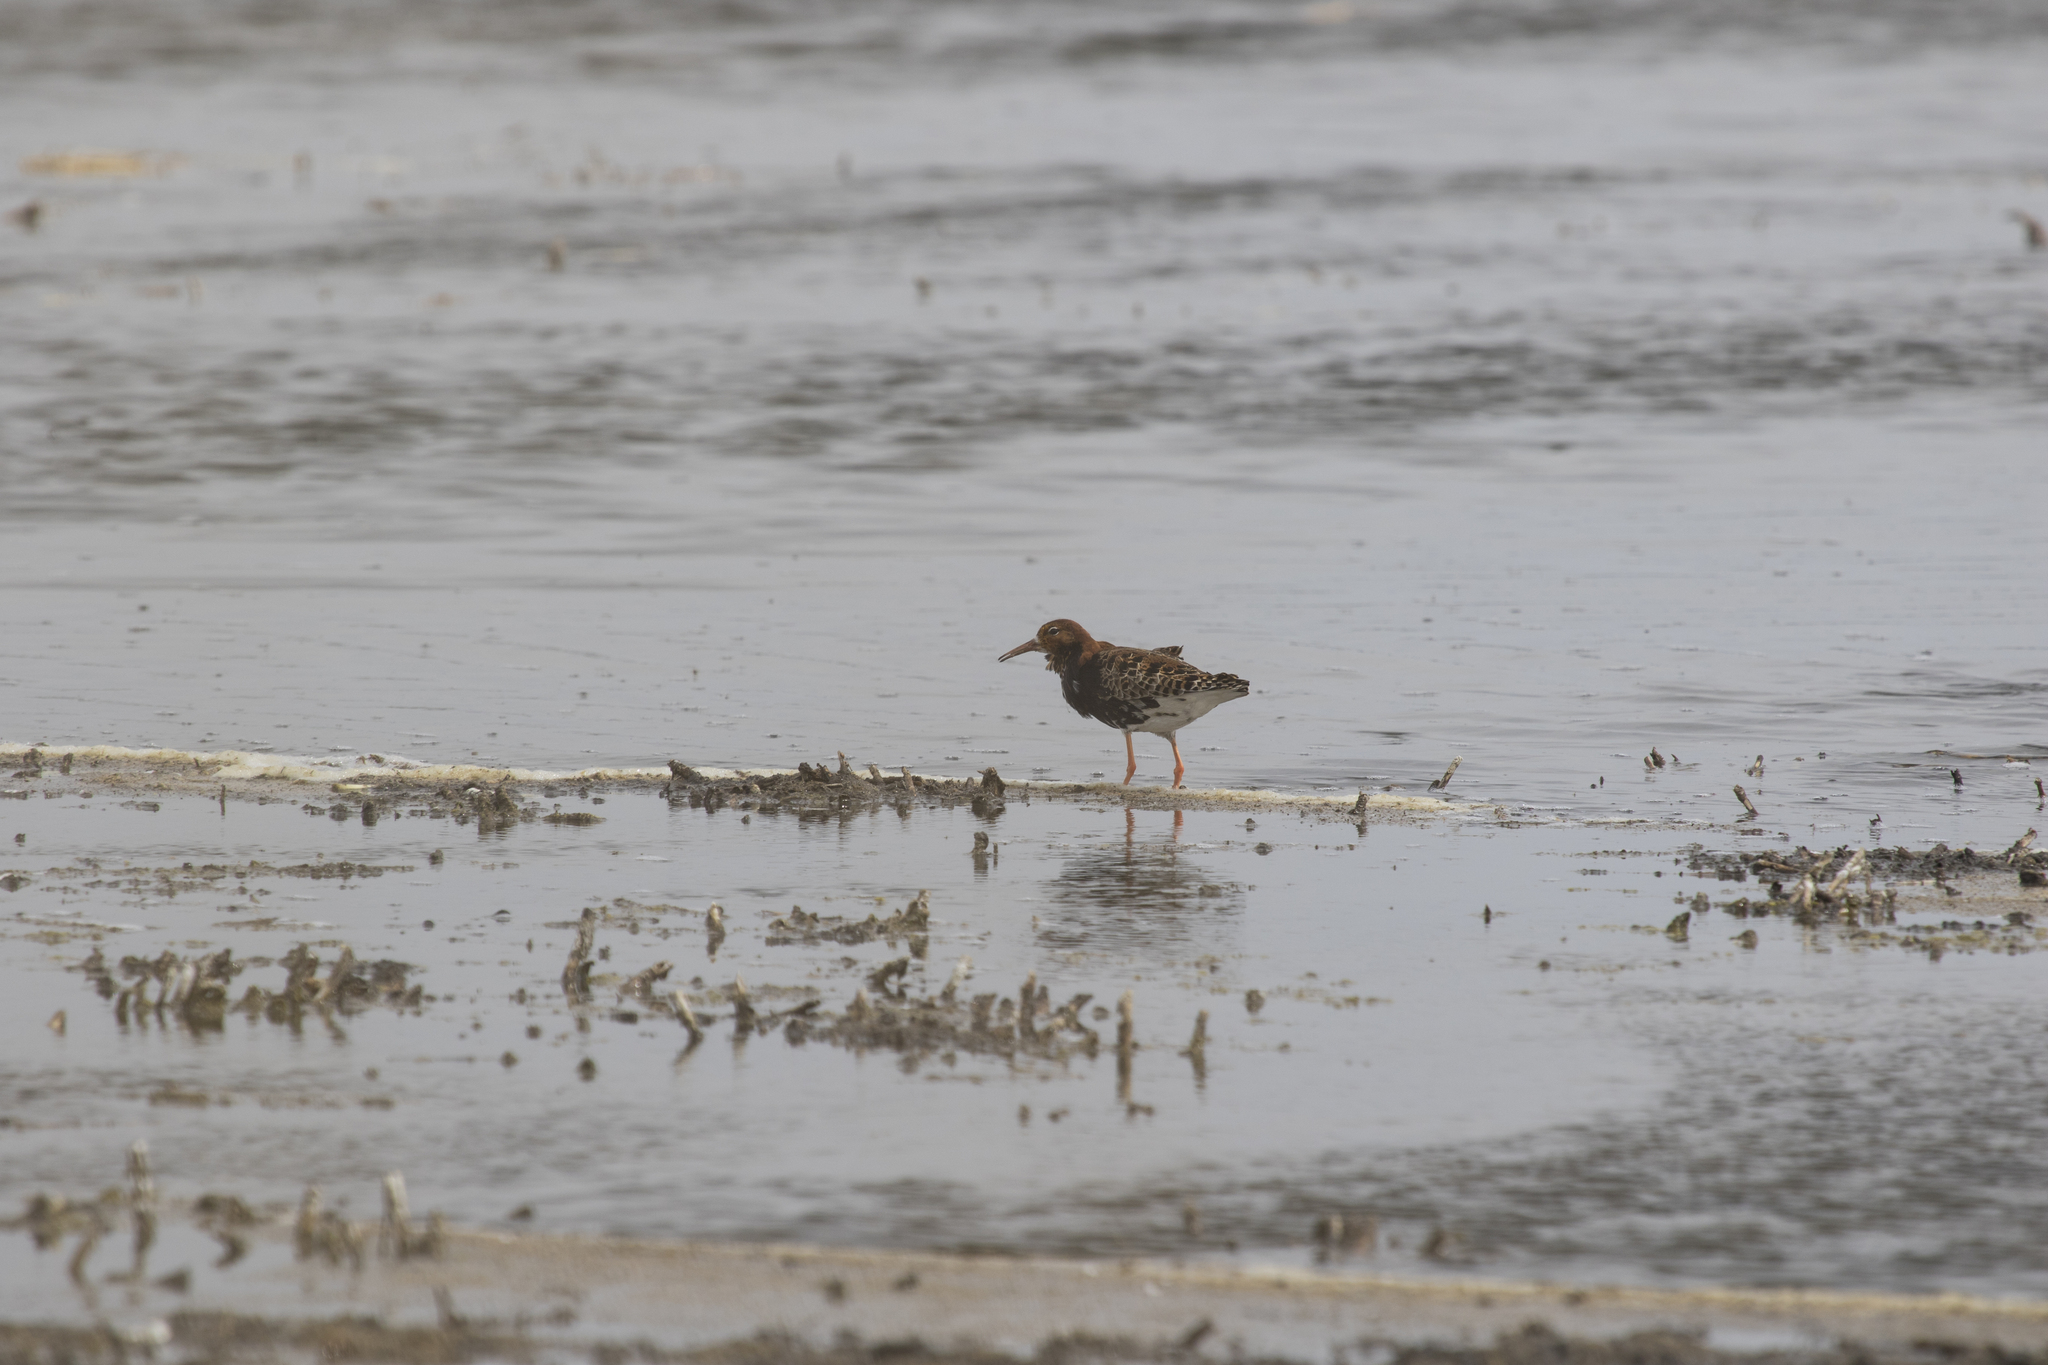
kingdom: Animalia
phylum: Chordata
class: Aves
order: Charadriiformes
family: Scolopacidae
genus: Calidris
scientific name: Calidris pugnax
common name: Ruff
